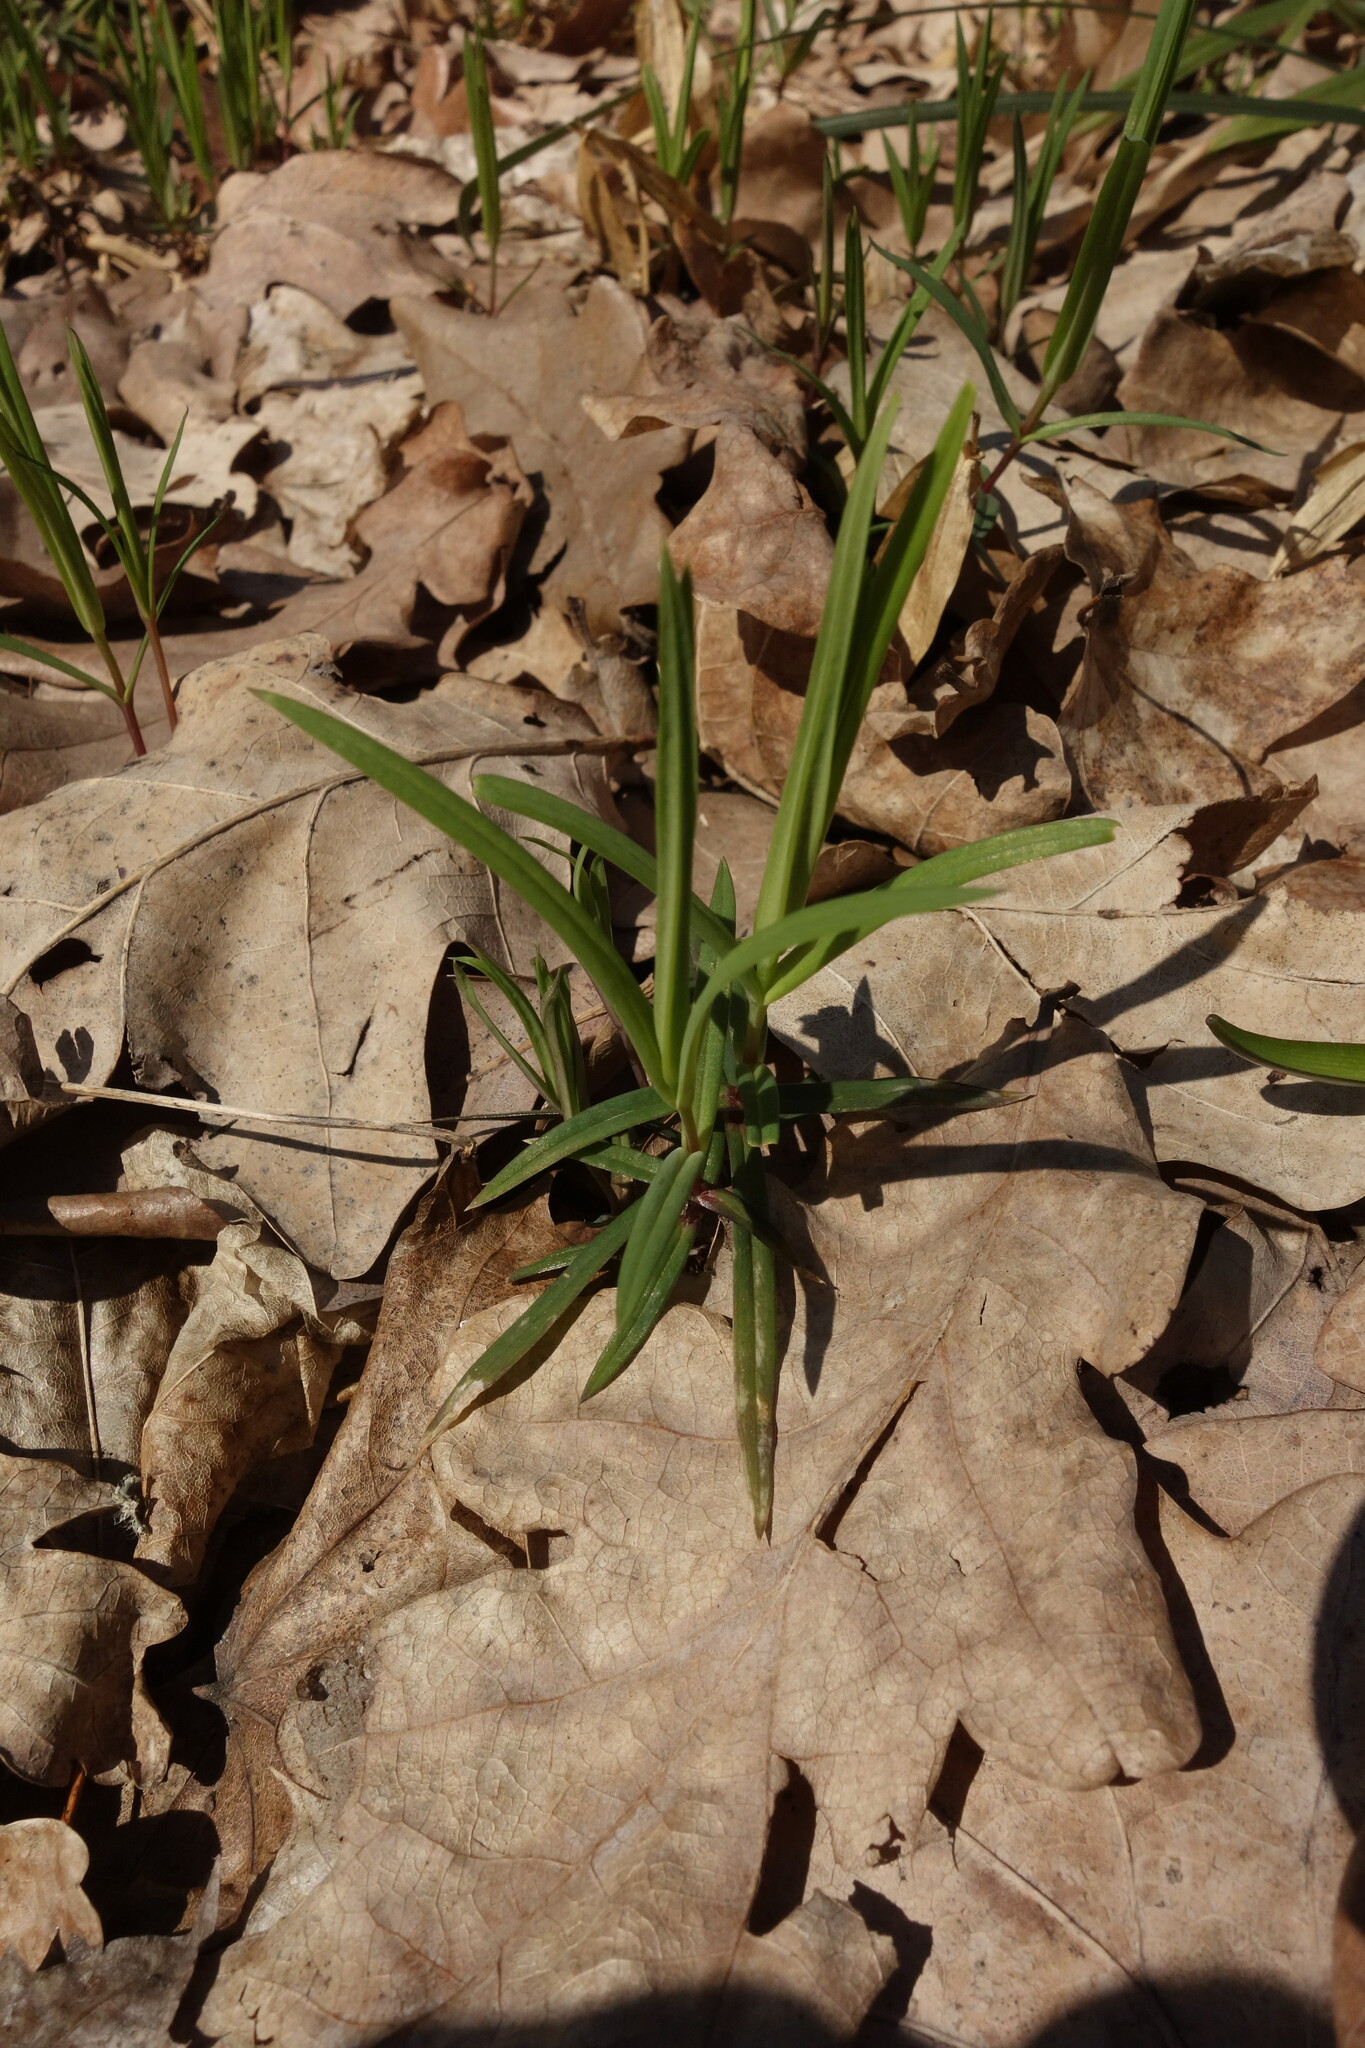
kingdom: Plantae
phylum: Tracheophyta
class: Magnoliopsida
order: Caryophyllales
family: Caryophyllaceae
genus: Rabelera
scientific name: Rabelera holostea
